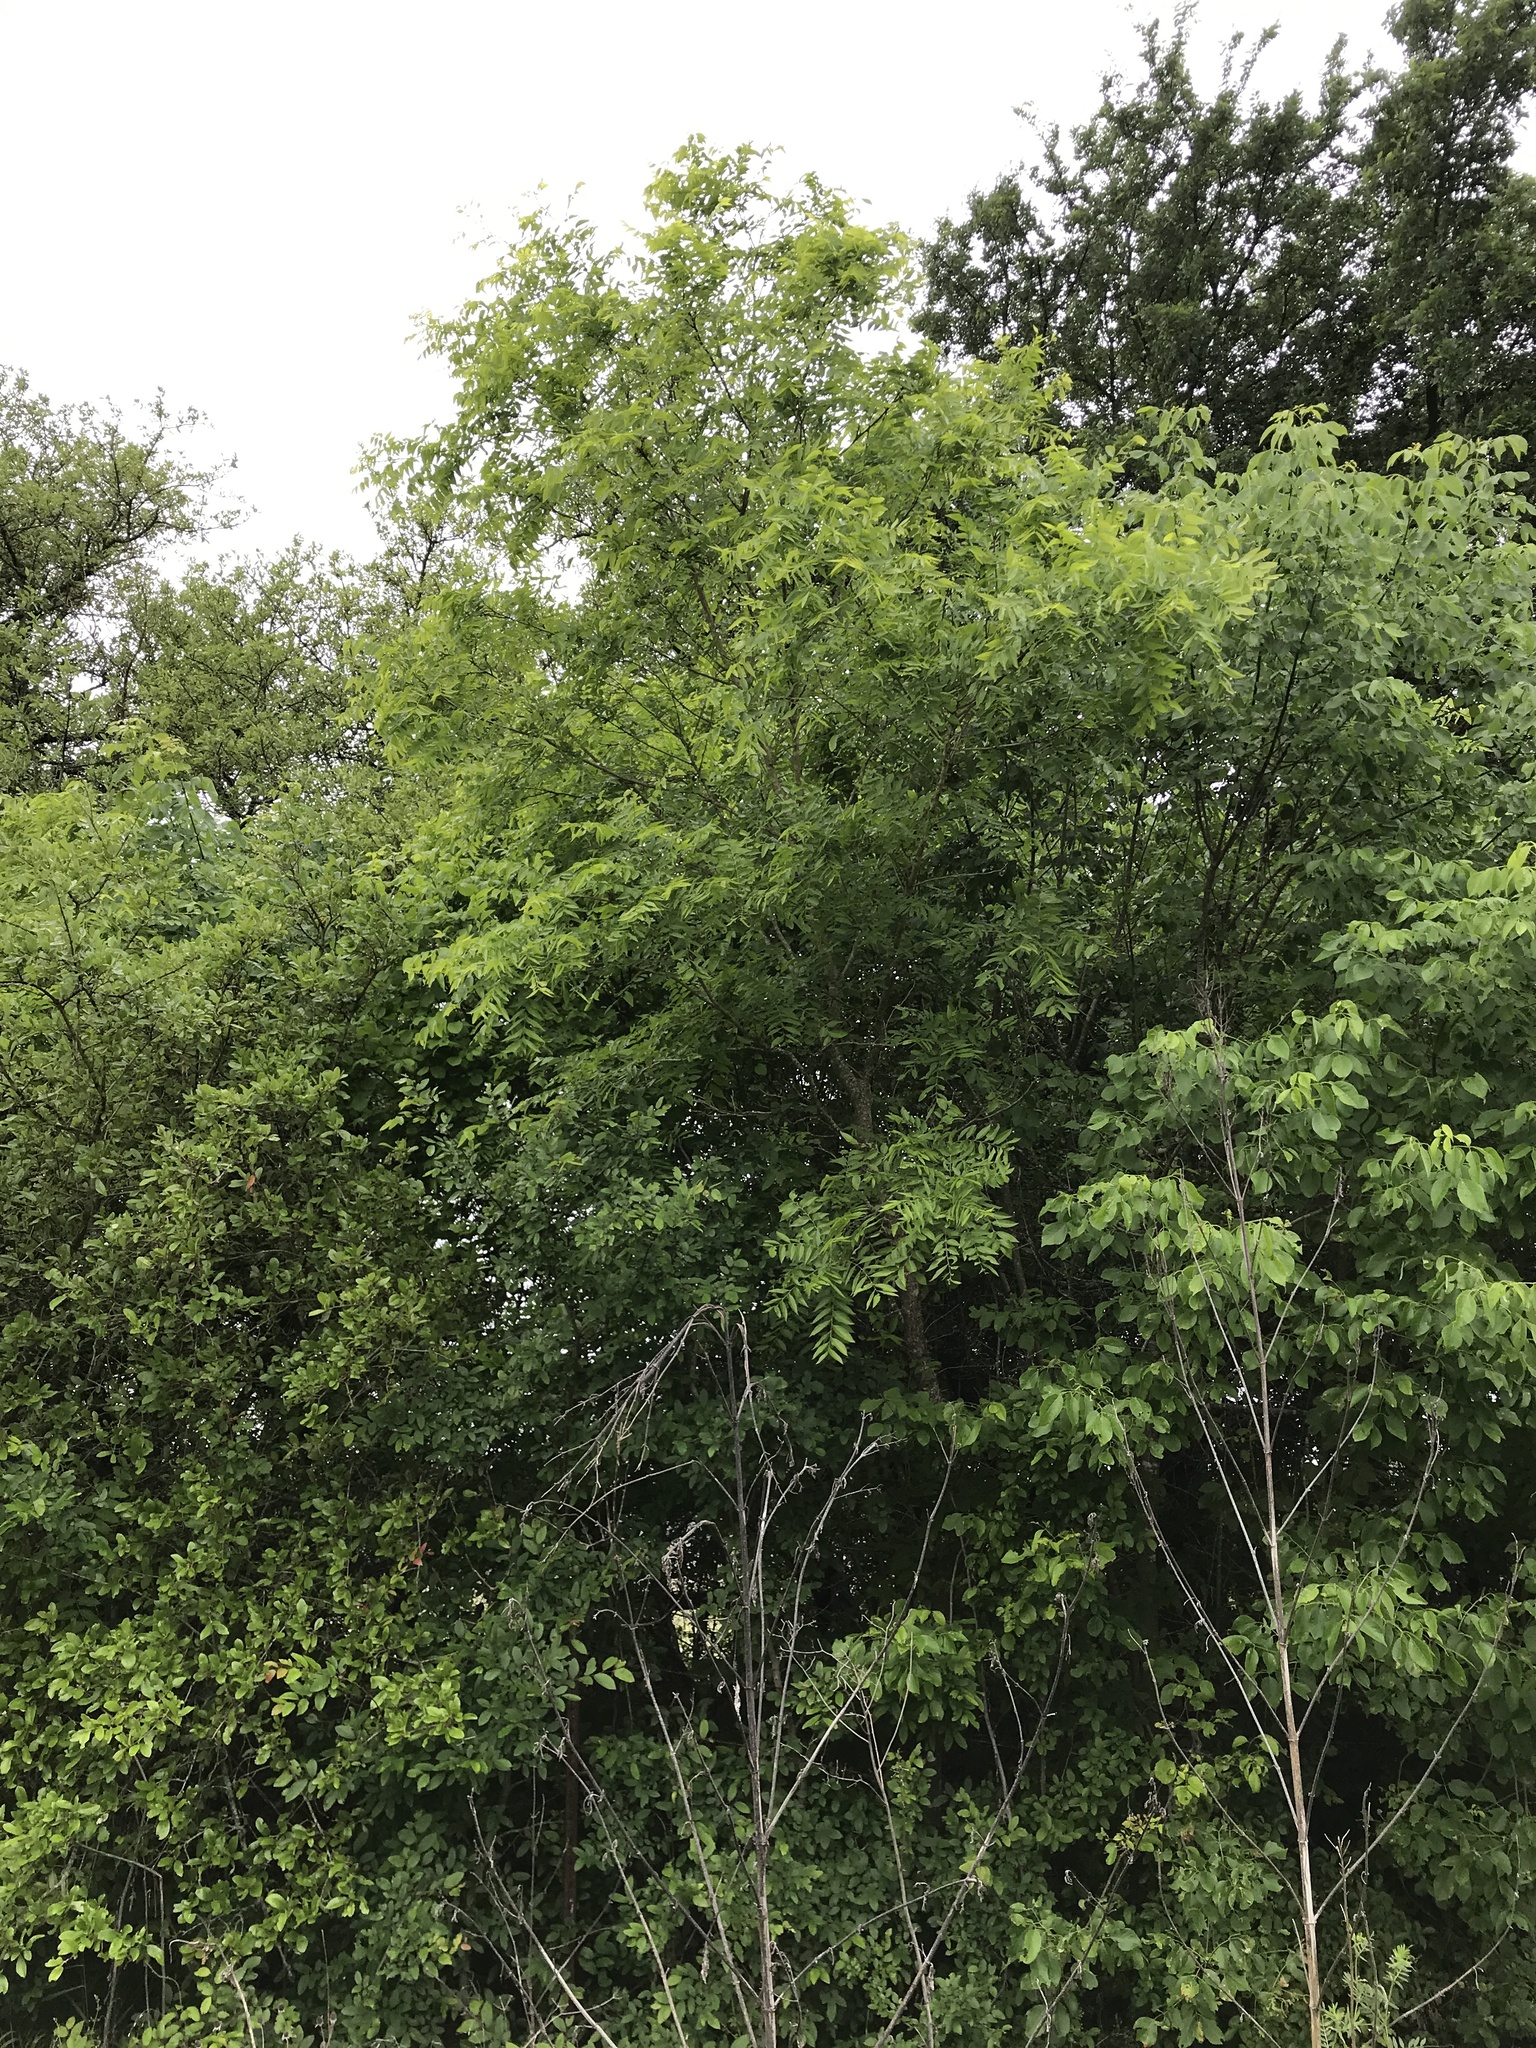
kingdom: Plantae
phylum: Tracheophyta
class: Magnoliopsida
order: Sapindales
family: Sapindaceae
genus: Sapindus
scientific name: Sapindus drummondii
